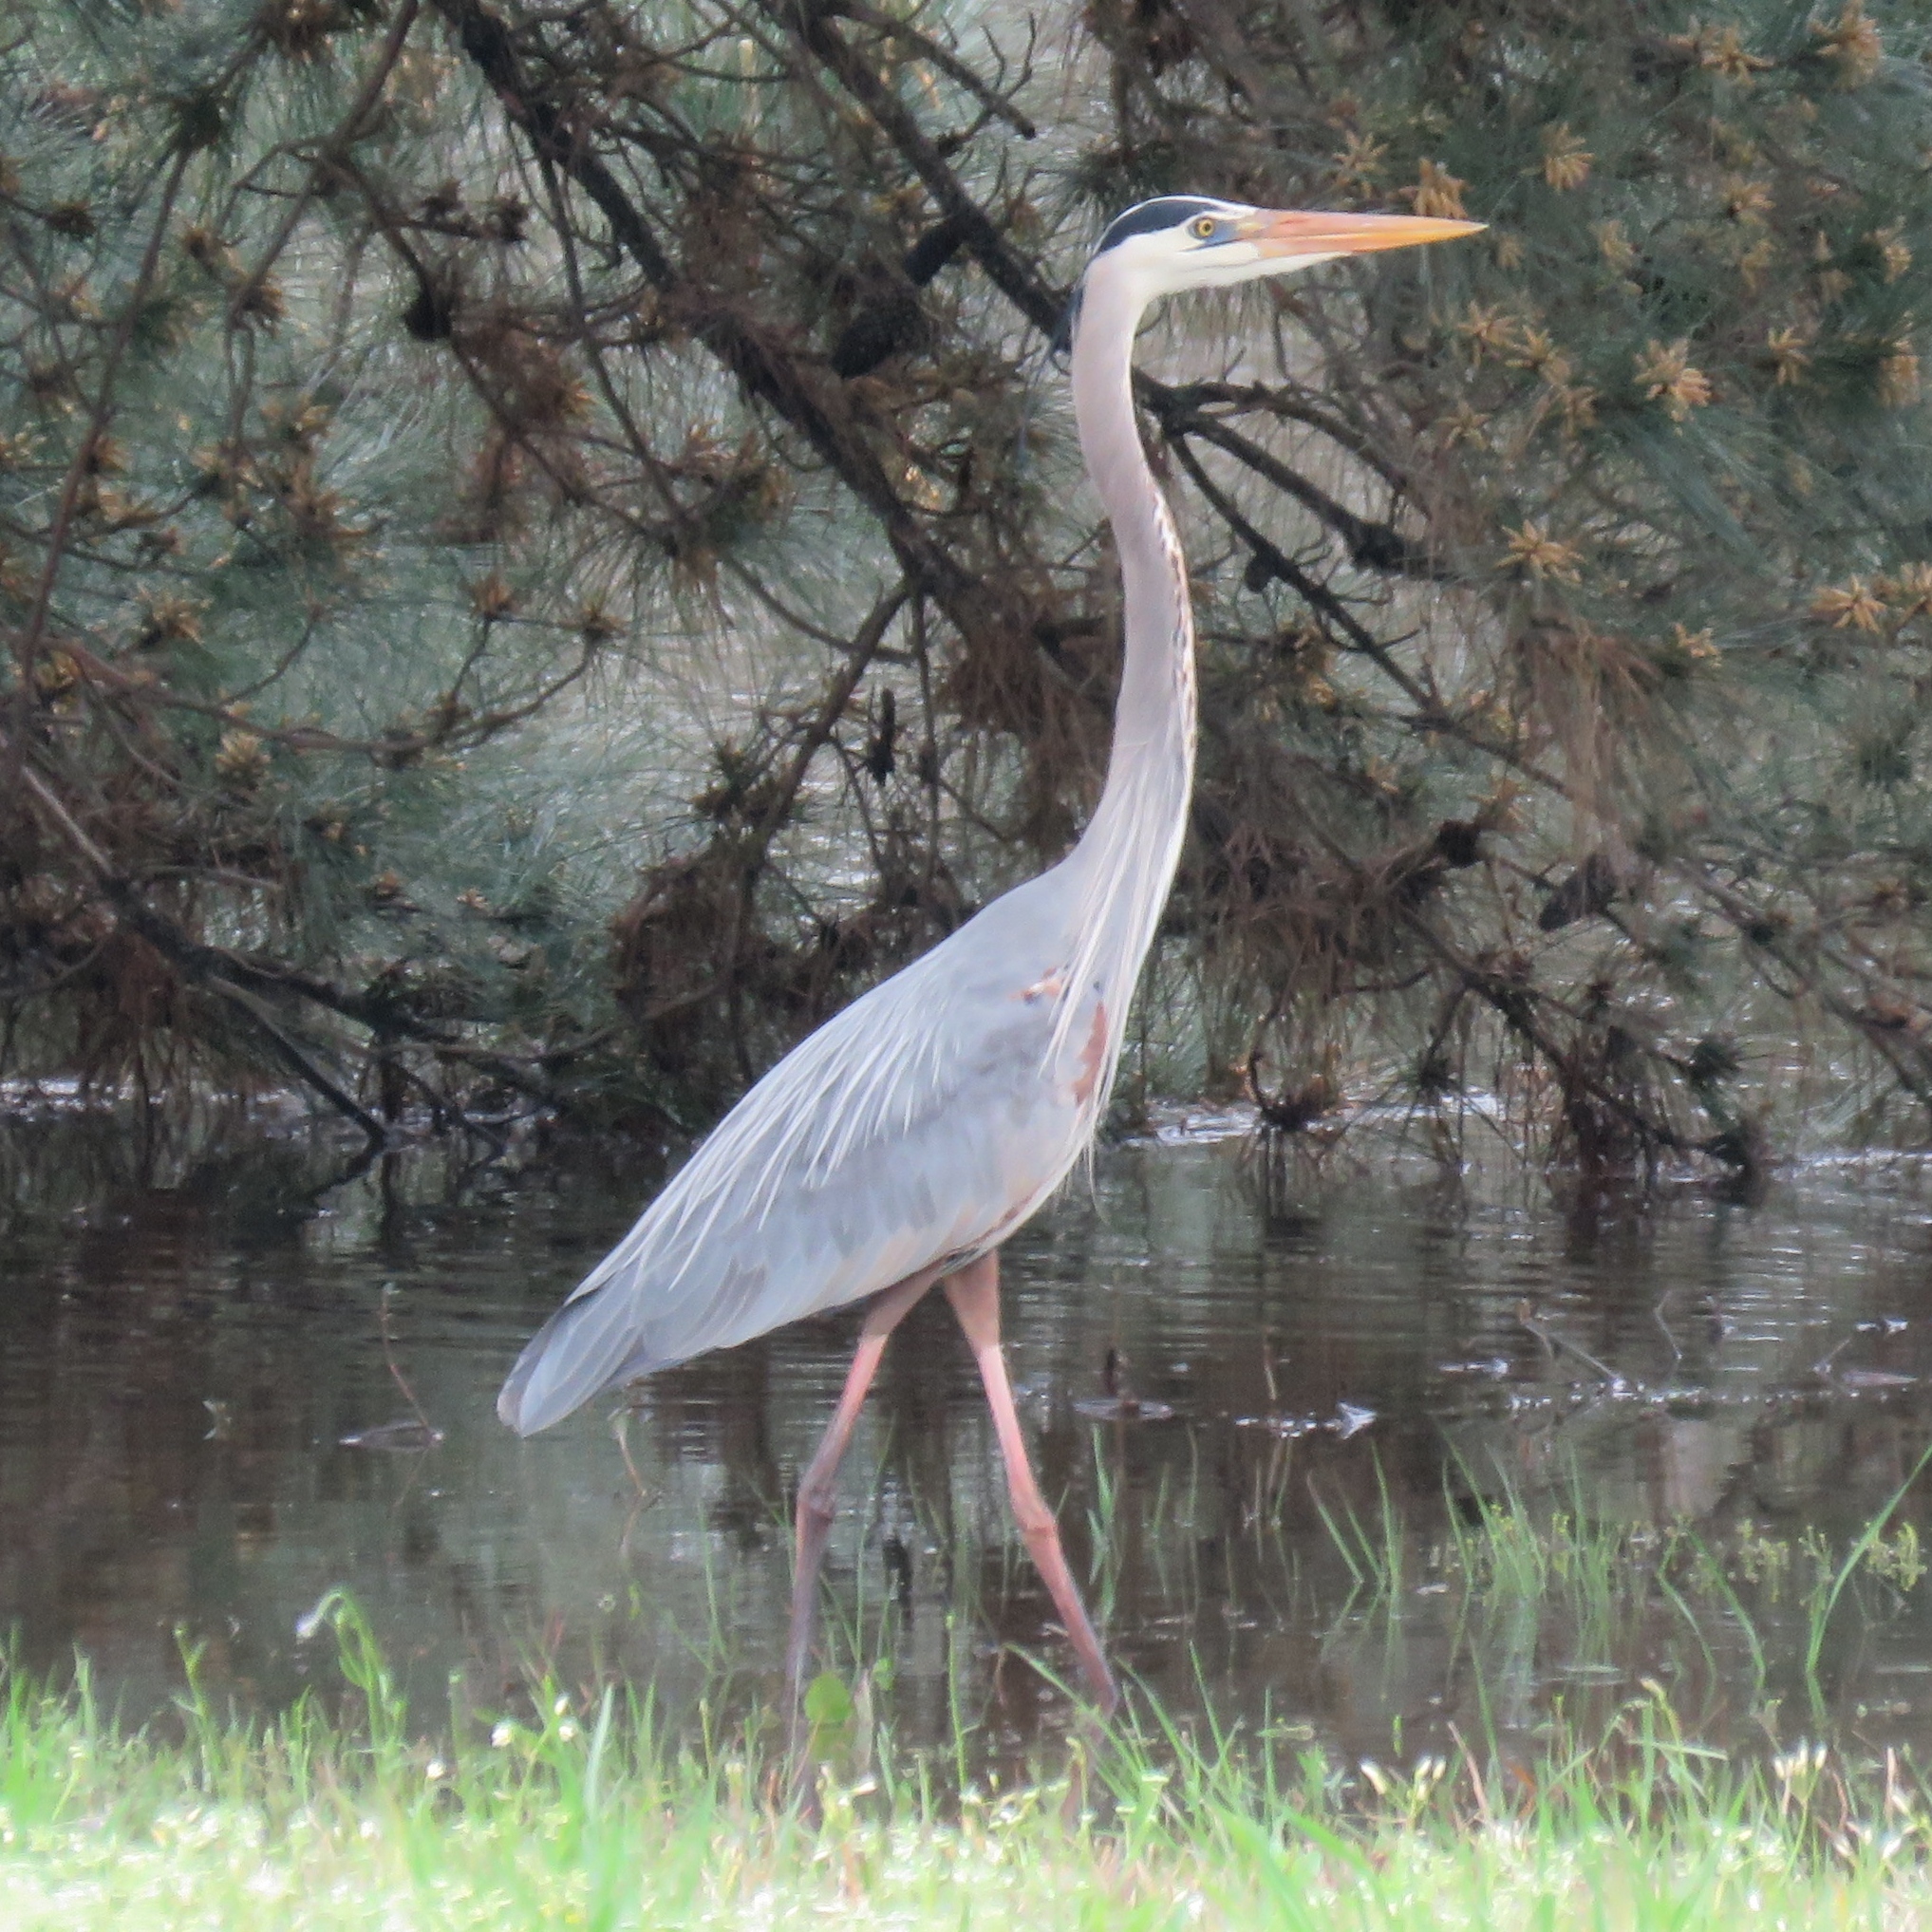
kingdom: Animalia
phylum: Chordata
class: Aves
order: Pelecaniformes
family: Ardeidae
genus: Ardea
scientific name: Ardea herodias
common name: Great blue heron
